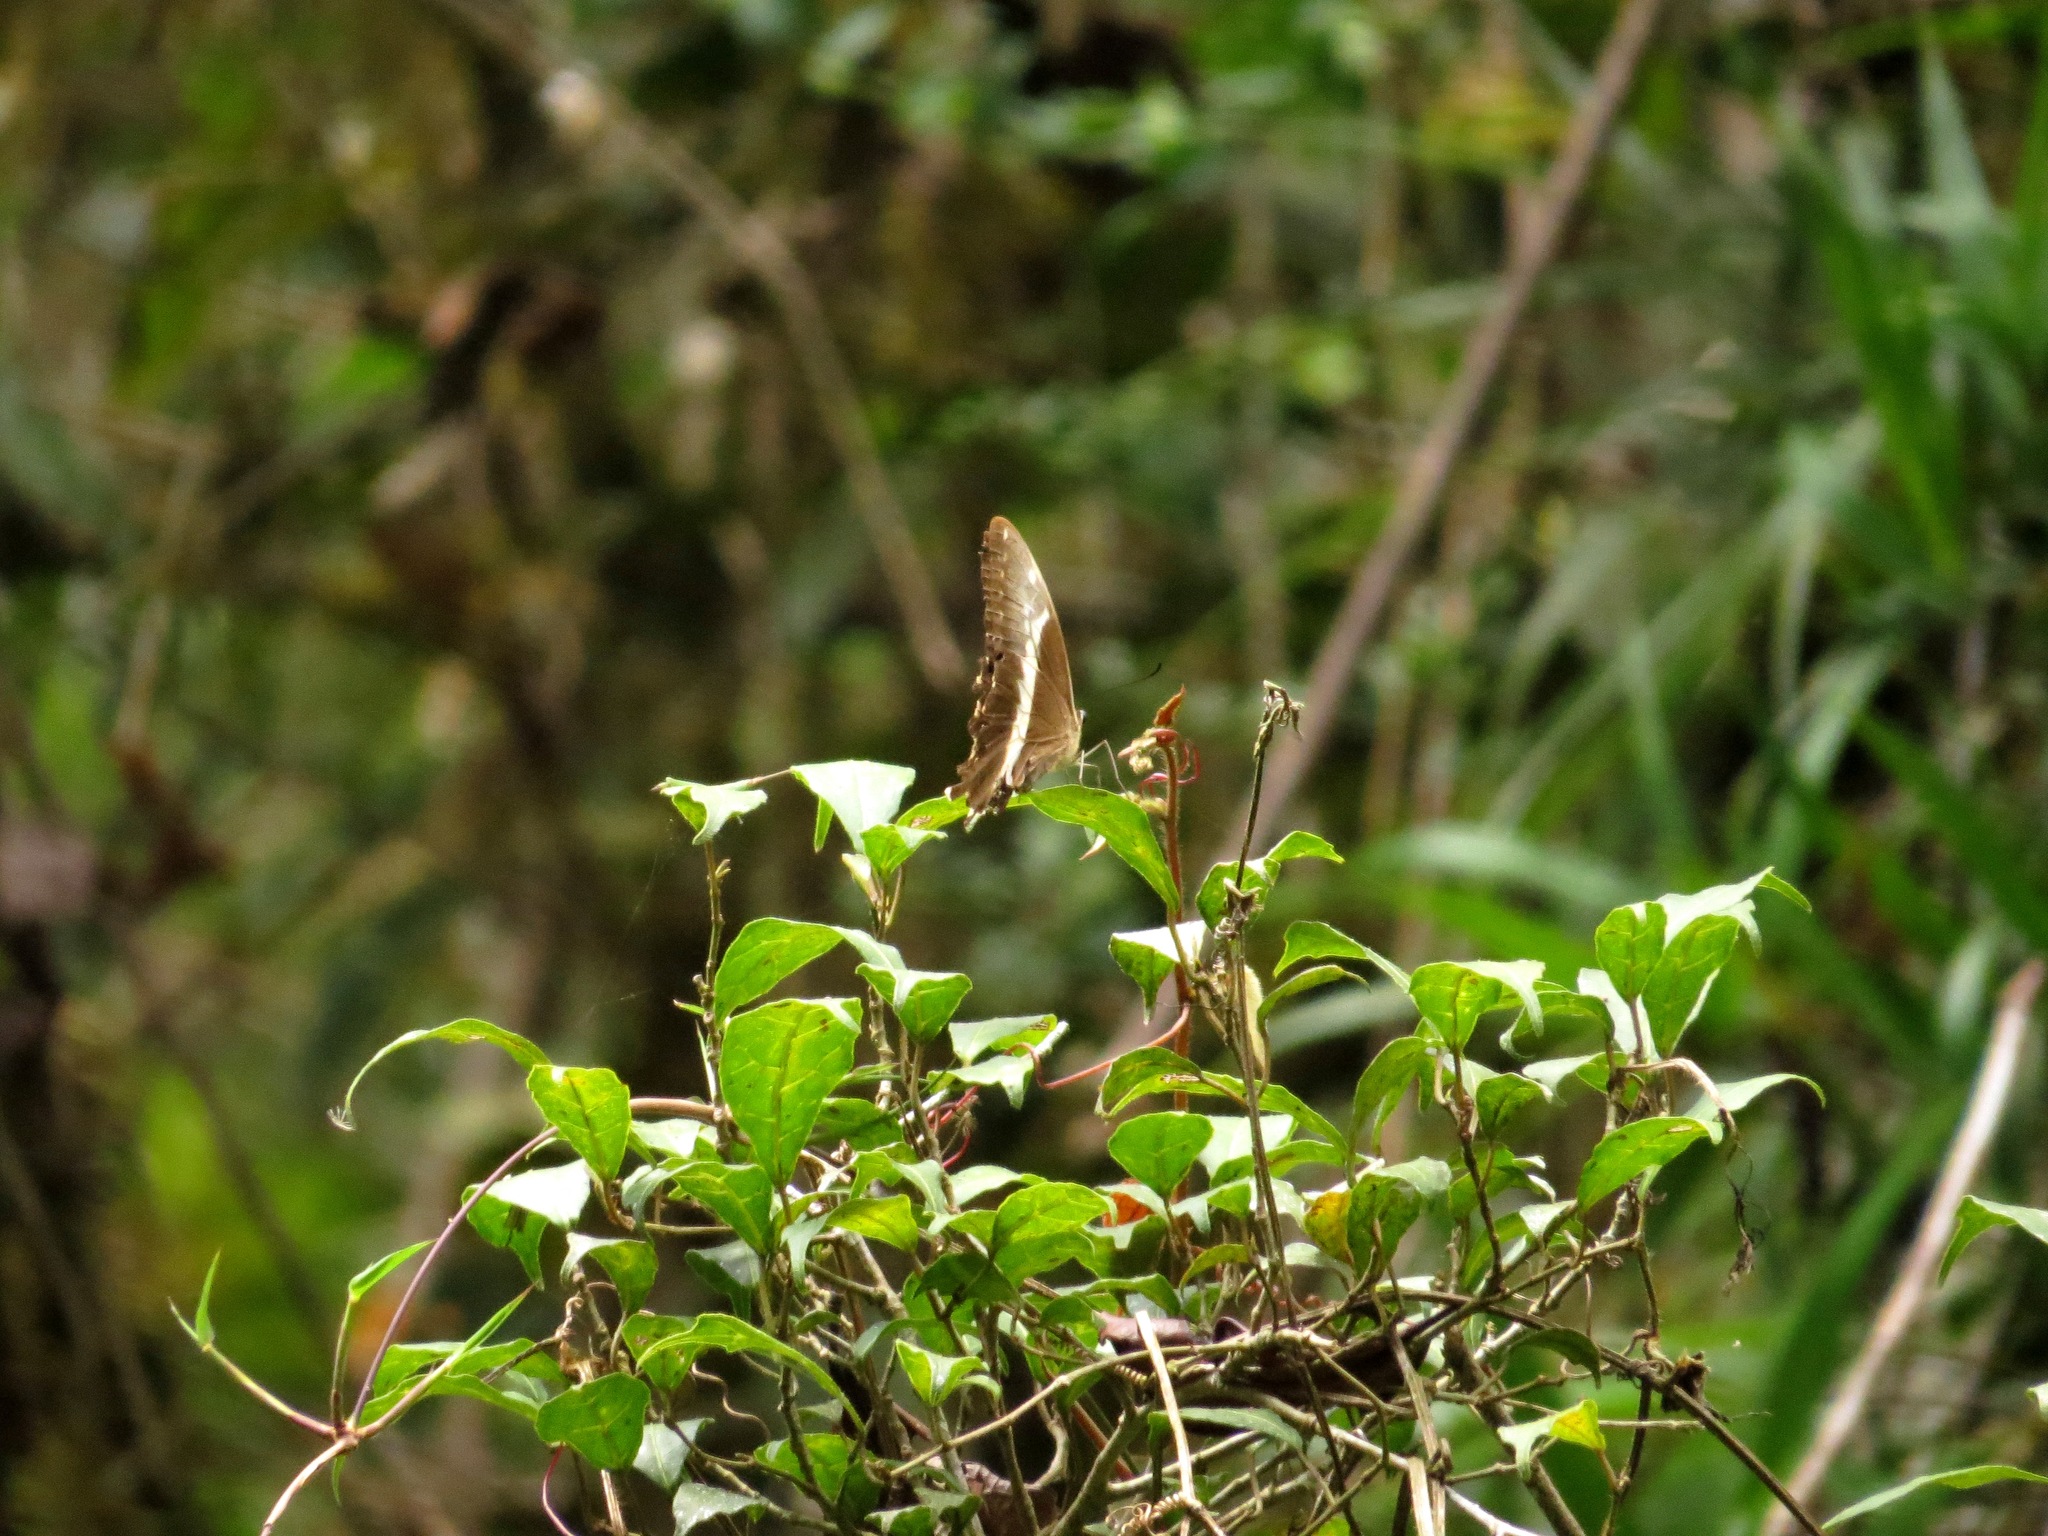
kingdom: Animalia
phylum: Arthropoda
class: Insecta
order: Lepidoptera
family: Papilionidae
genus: Papilio
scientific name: Papilio mangoura
